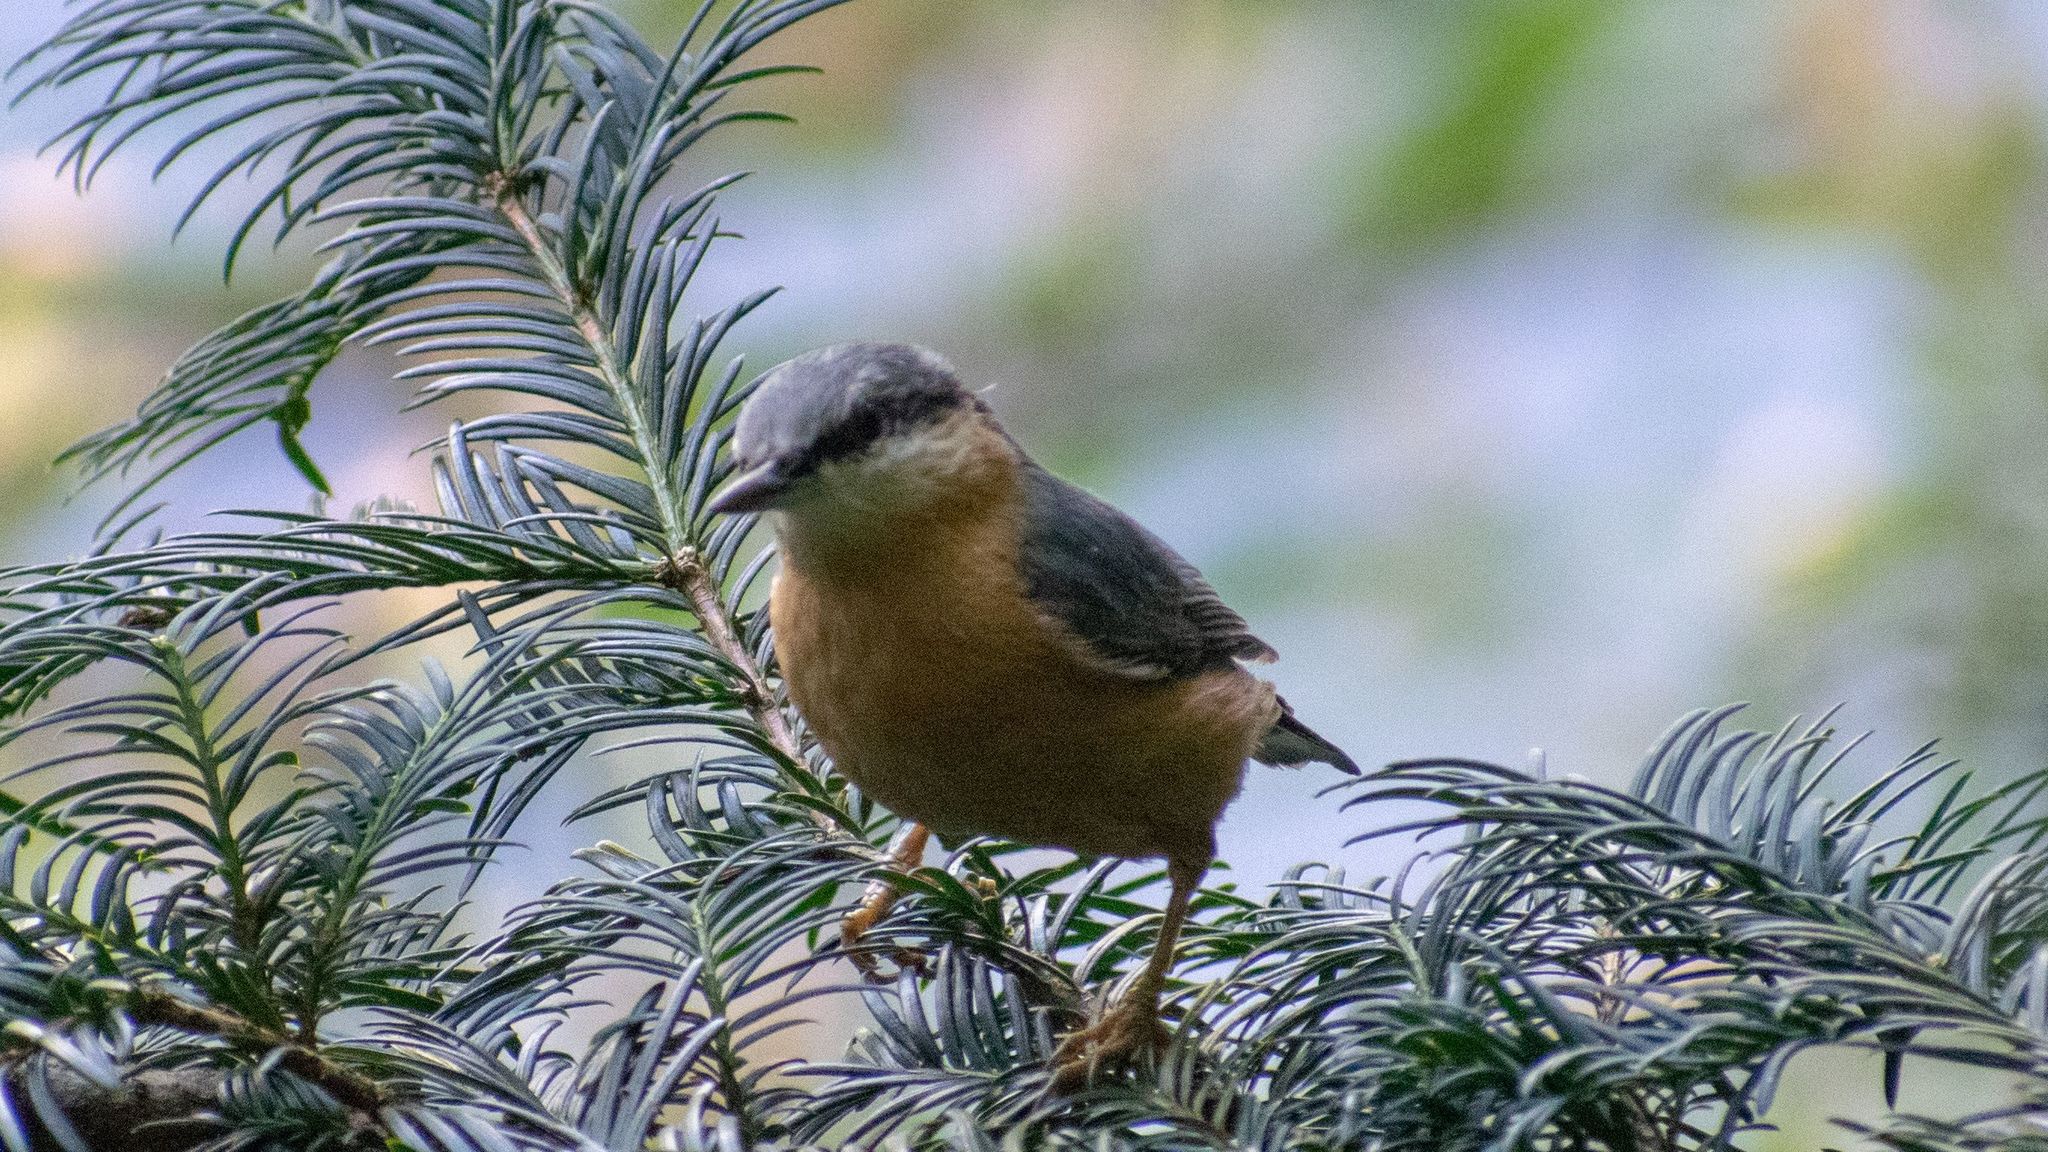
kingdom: Animalia
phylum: Chordata
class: Aves
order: Passeriformes
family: Sittidae
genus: Sitta
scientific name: Sitta europaea
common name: Eurasian nuthatch
